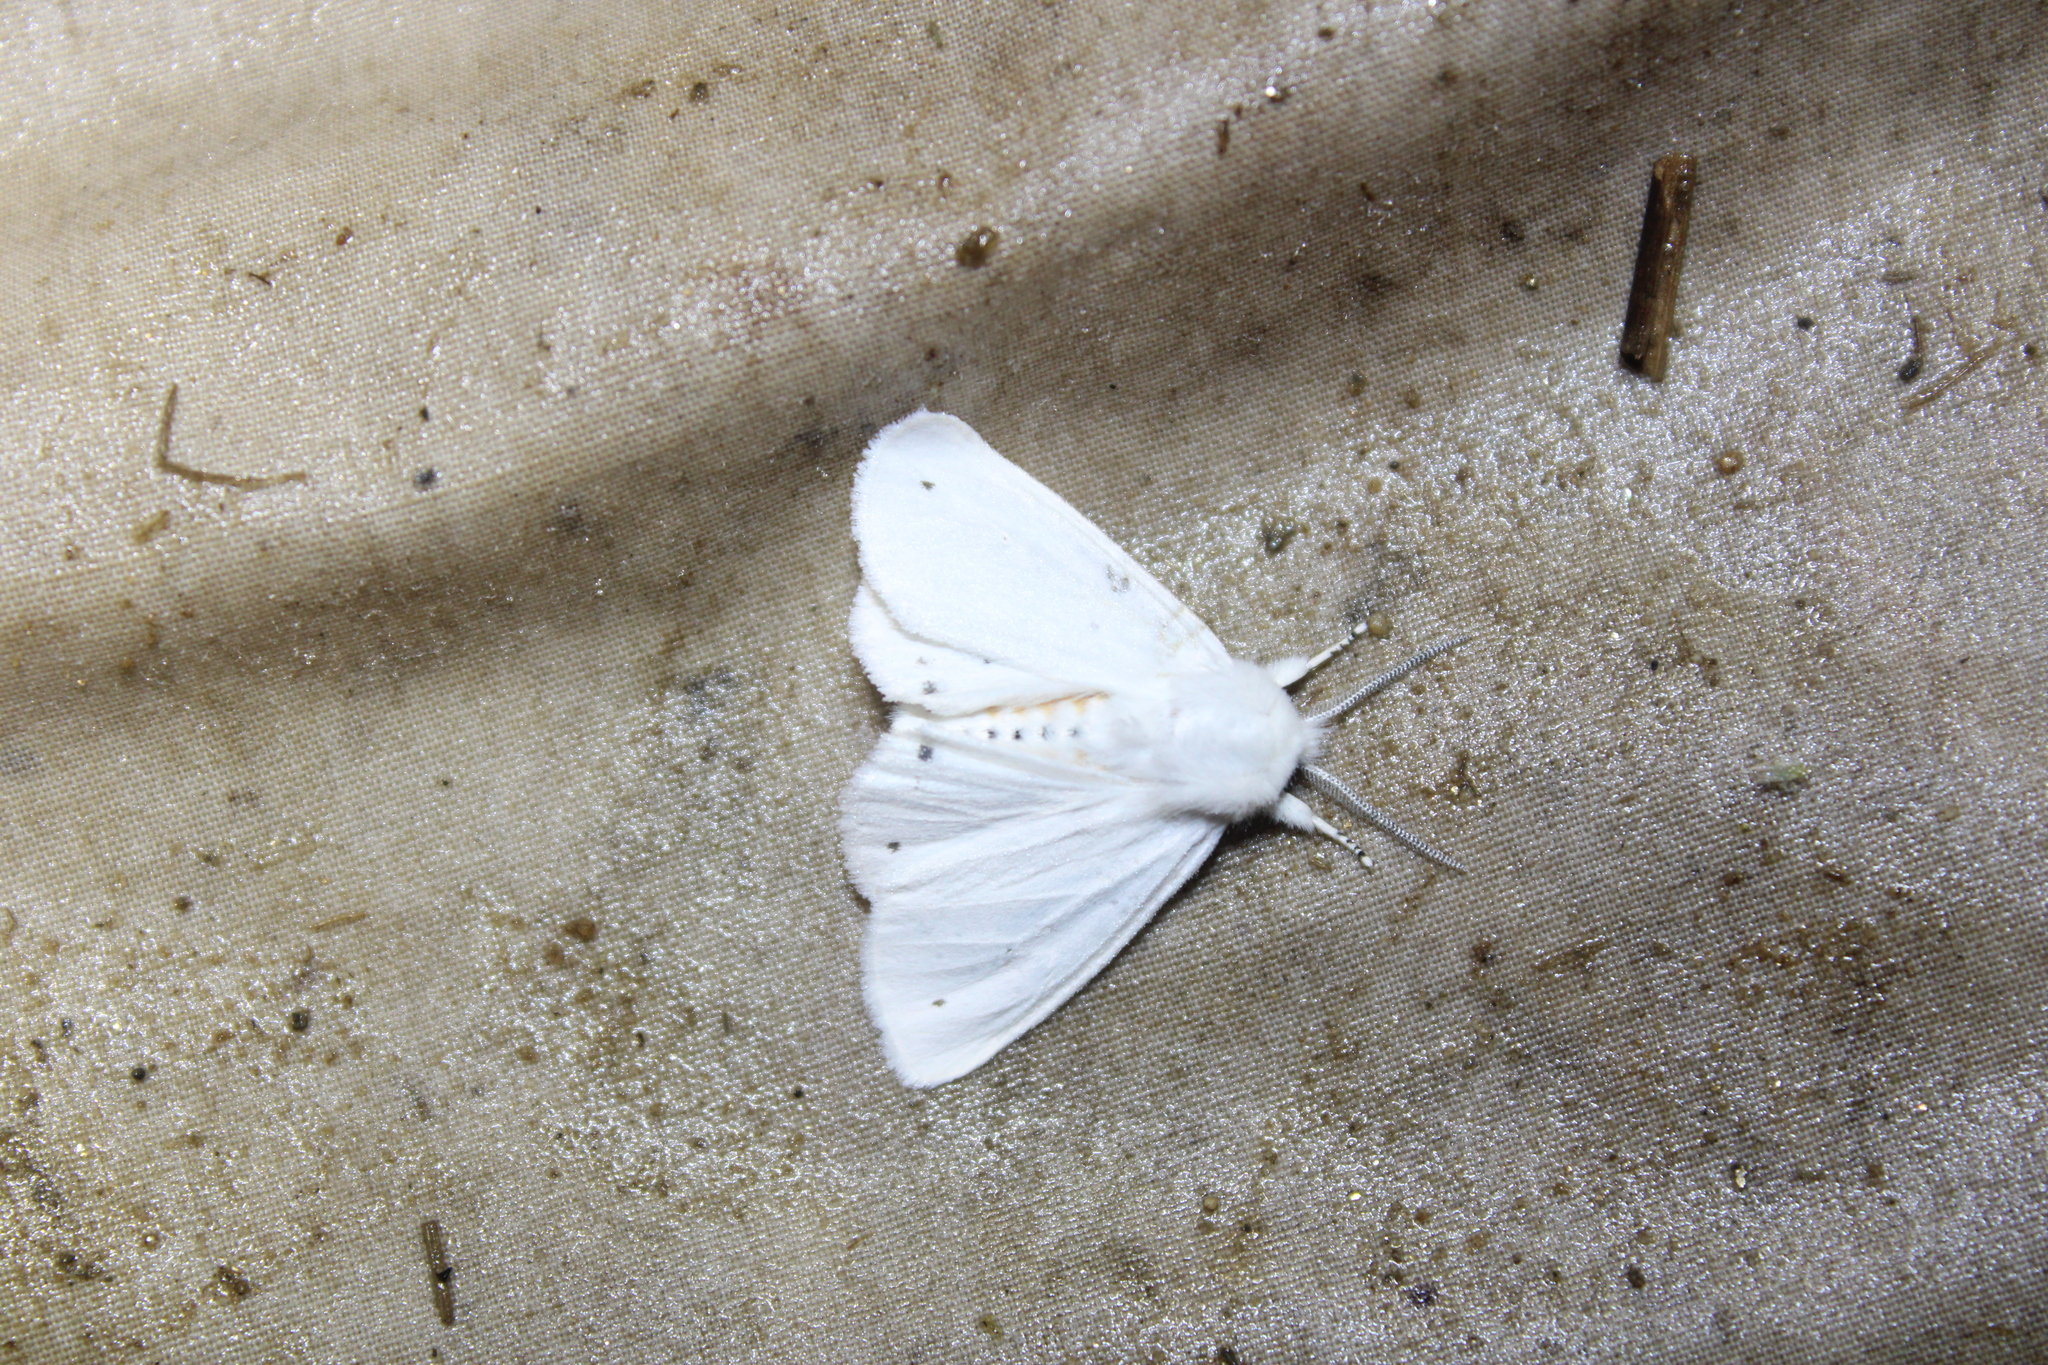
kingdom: Animalia
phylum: Arthropoda
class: Insecta
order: Lepidoptera
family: Erebidae
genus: Spilosoma
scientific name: Spilosoma virginica
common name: Virginia tiger moth
